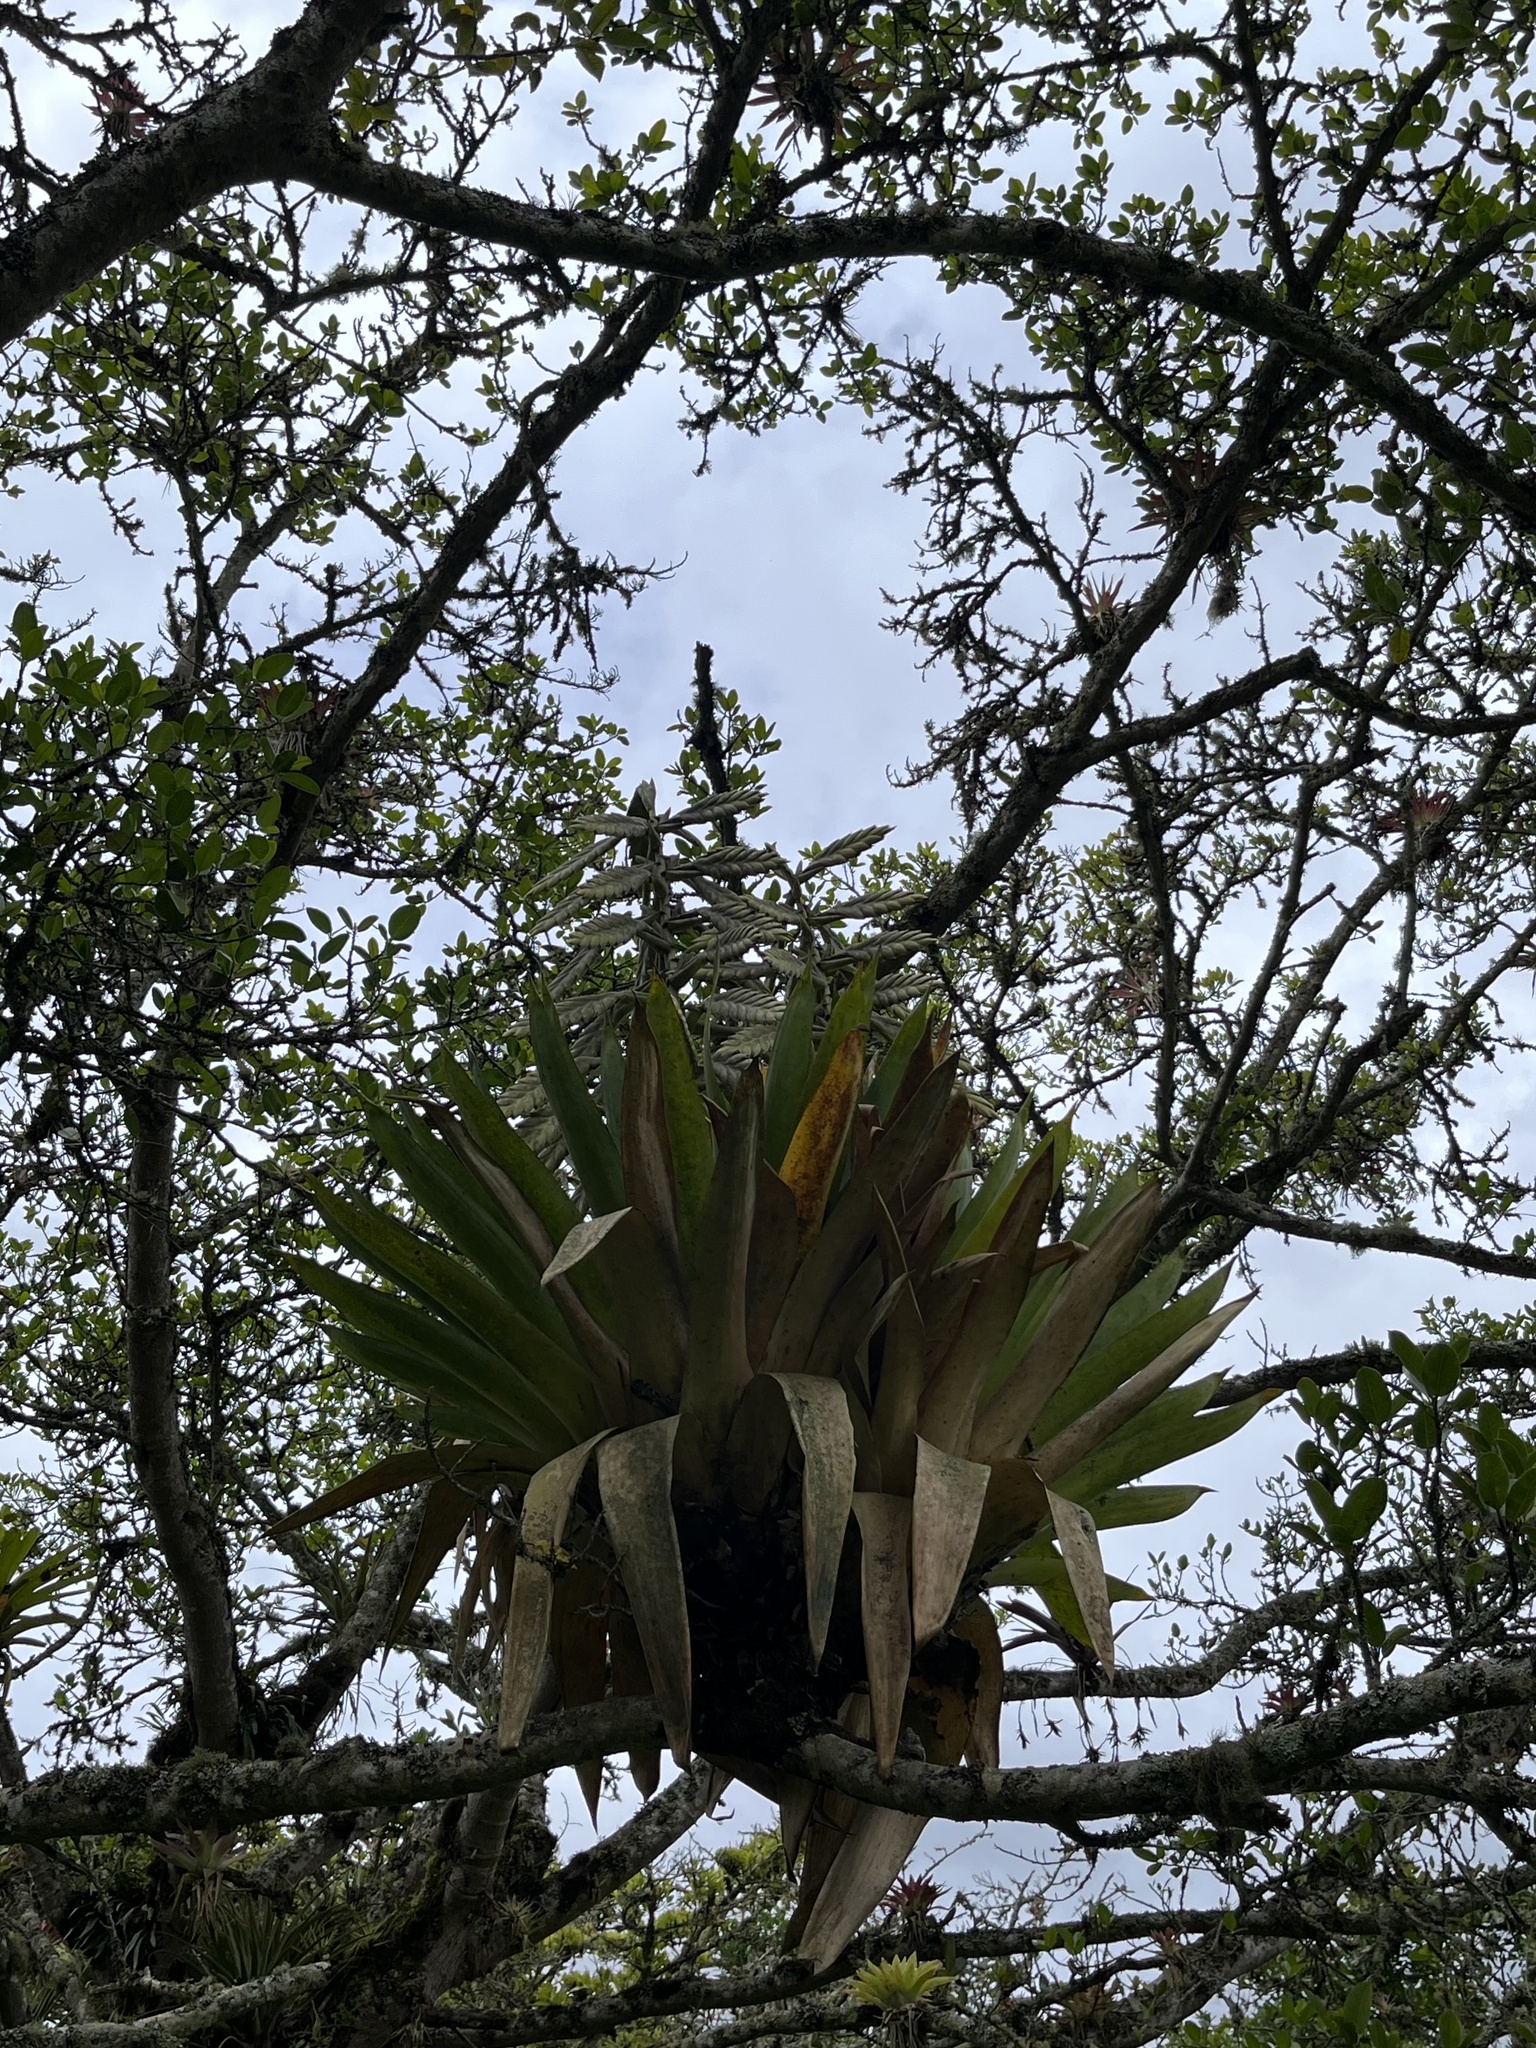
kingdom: Plantae
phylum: Tracheophyta
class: Liliopsida
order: Poales
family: Bromeliaceae
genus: Tillandsia
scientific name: Tillandsia fendleri
